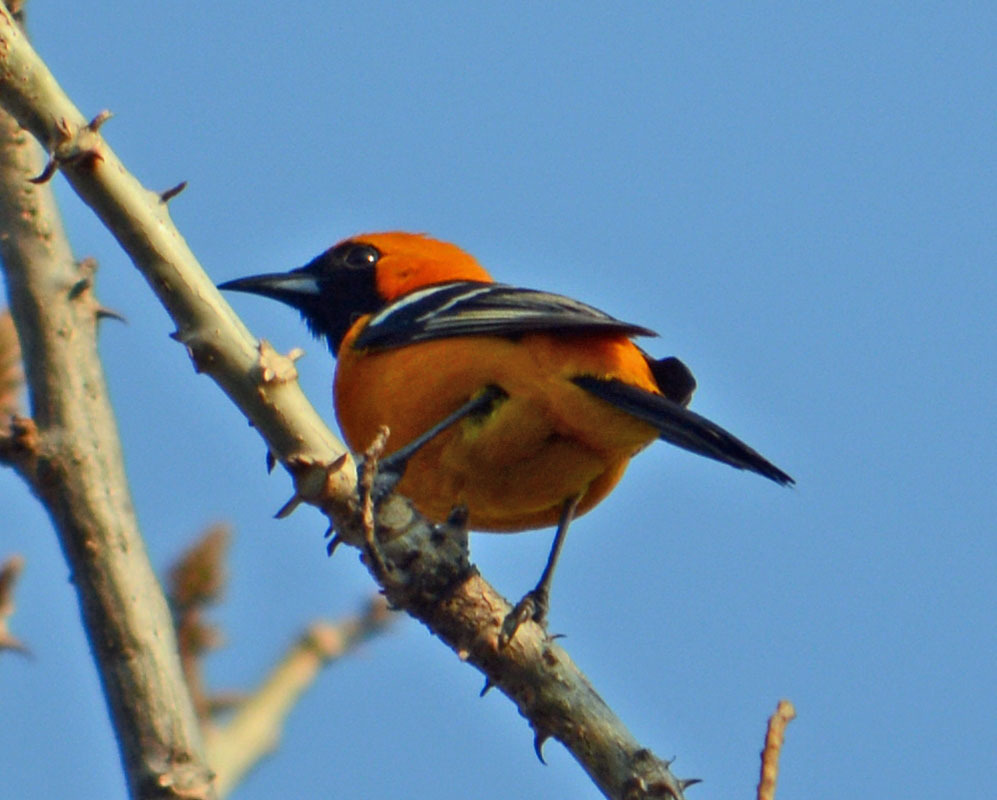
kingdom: Animalia
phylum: Chordata
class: Aves
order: Passeriformes
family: Icteridae
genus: Icterus
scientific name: Icterus cucullatus
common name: Hooded oriole
